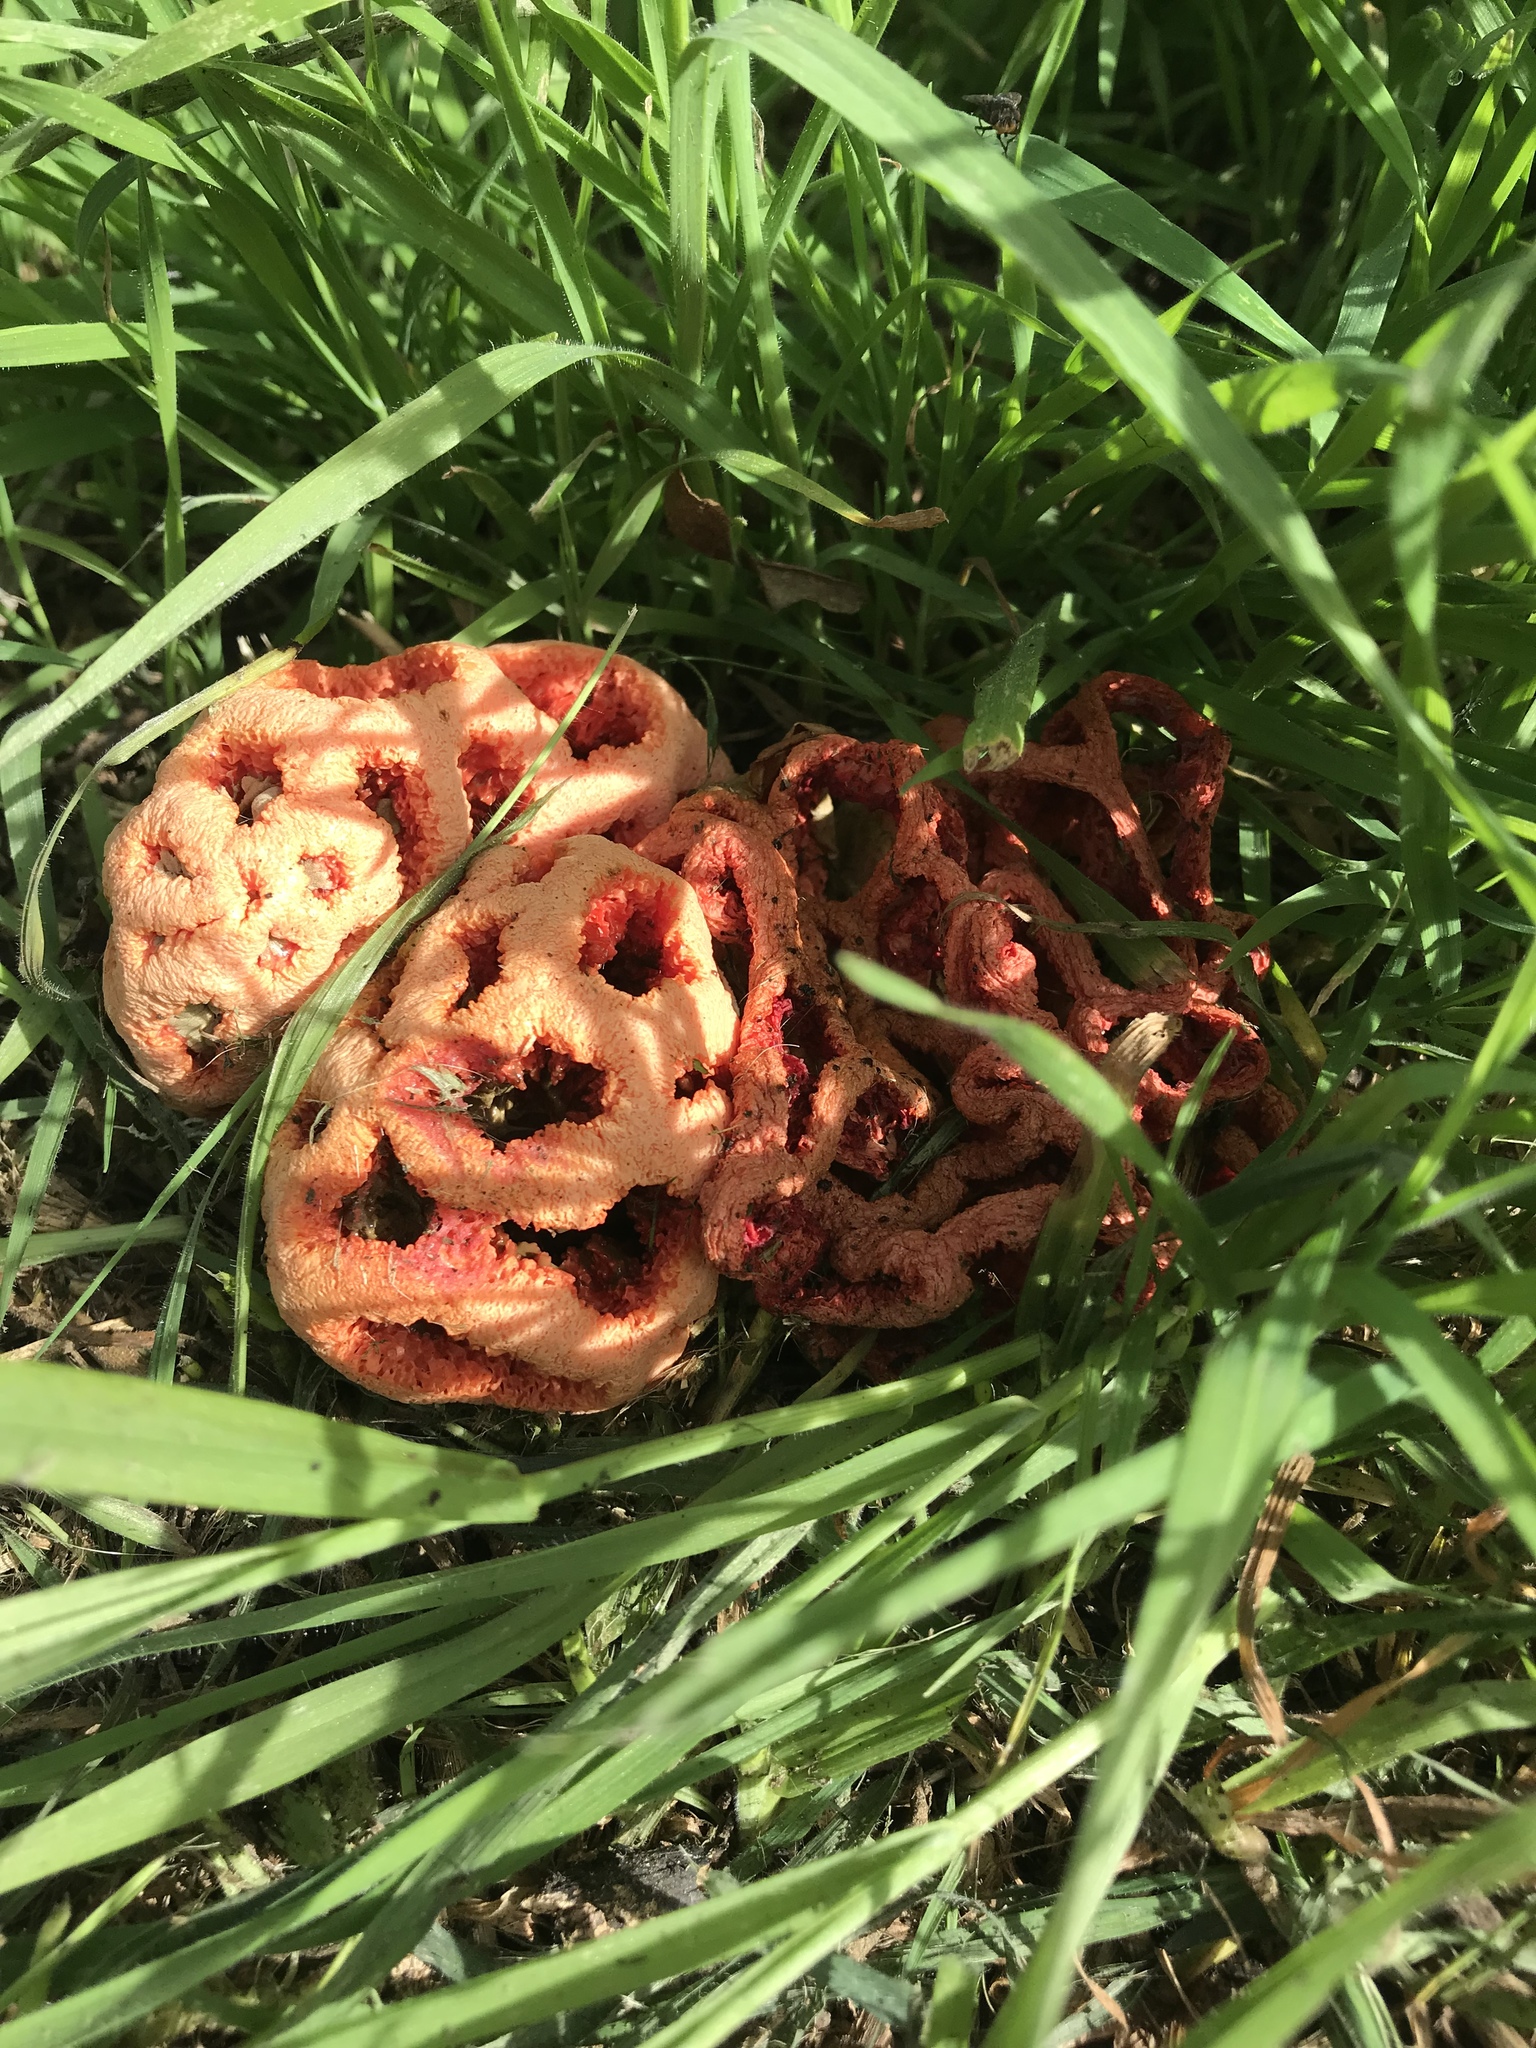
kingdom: Fungi
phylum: Basidiomycota
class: Agaricomycetes
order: Phallales
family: Phallaceae
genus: Clathrus
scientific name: Clathrus ruber
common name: Red cage
